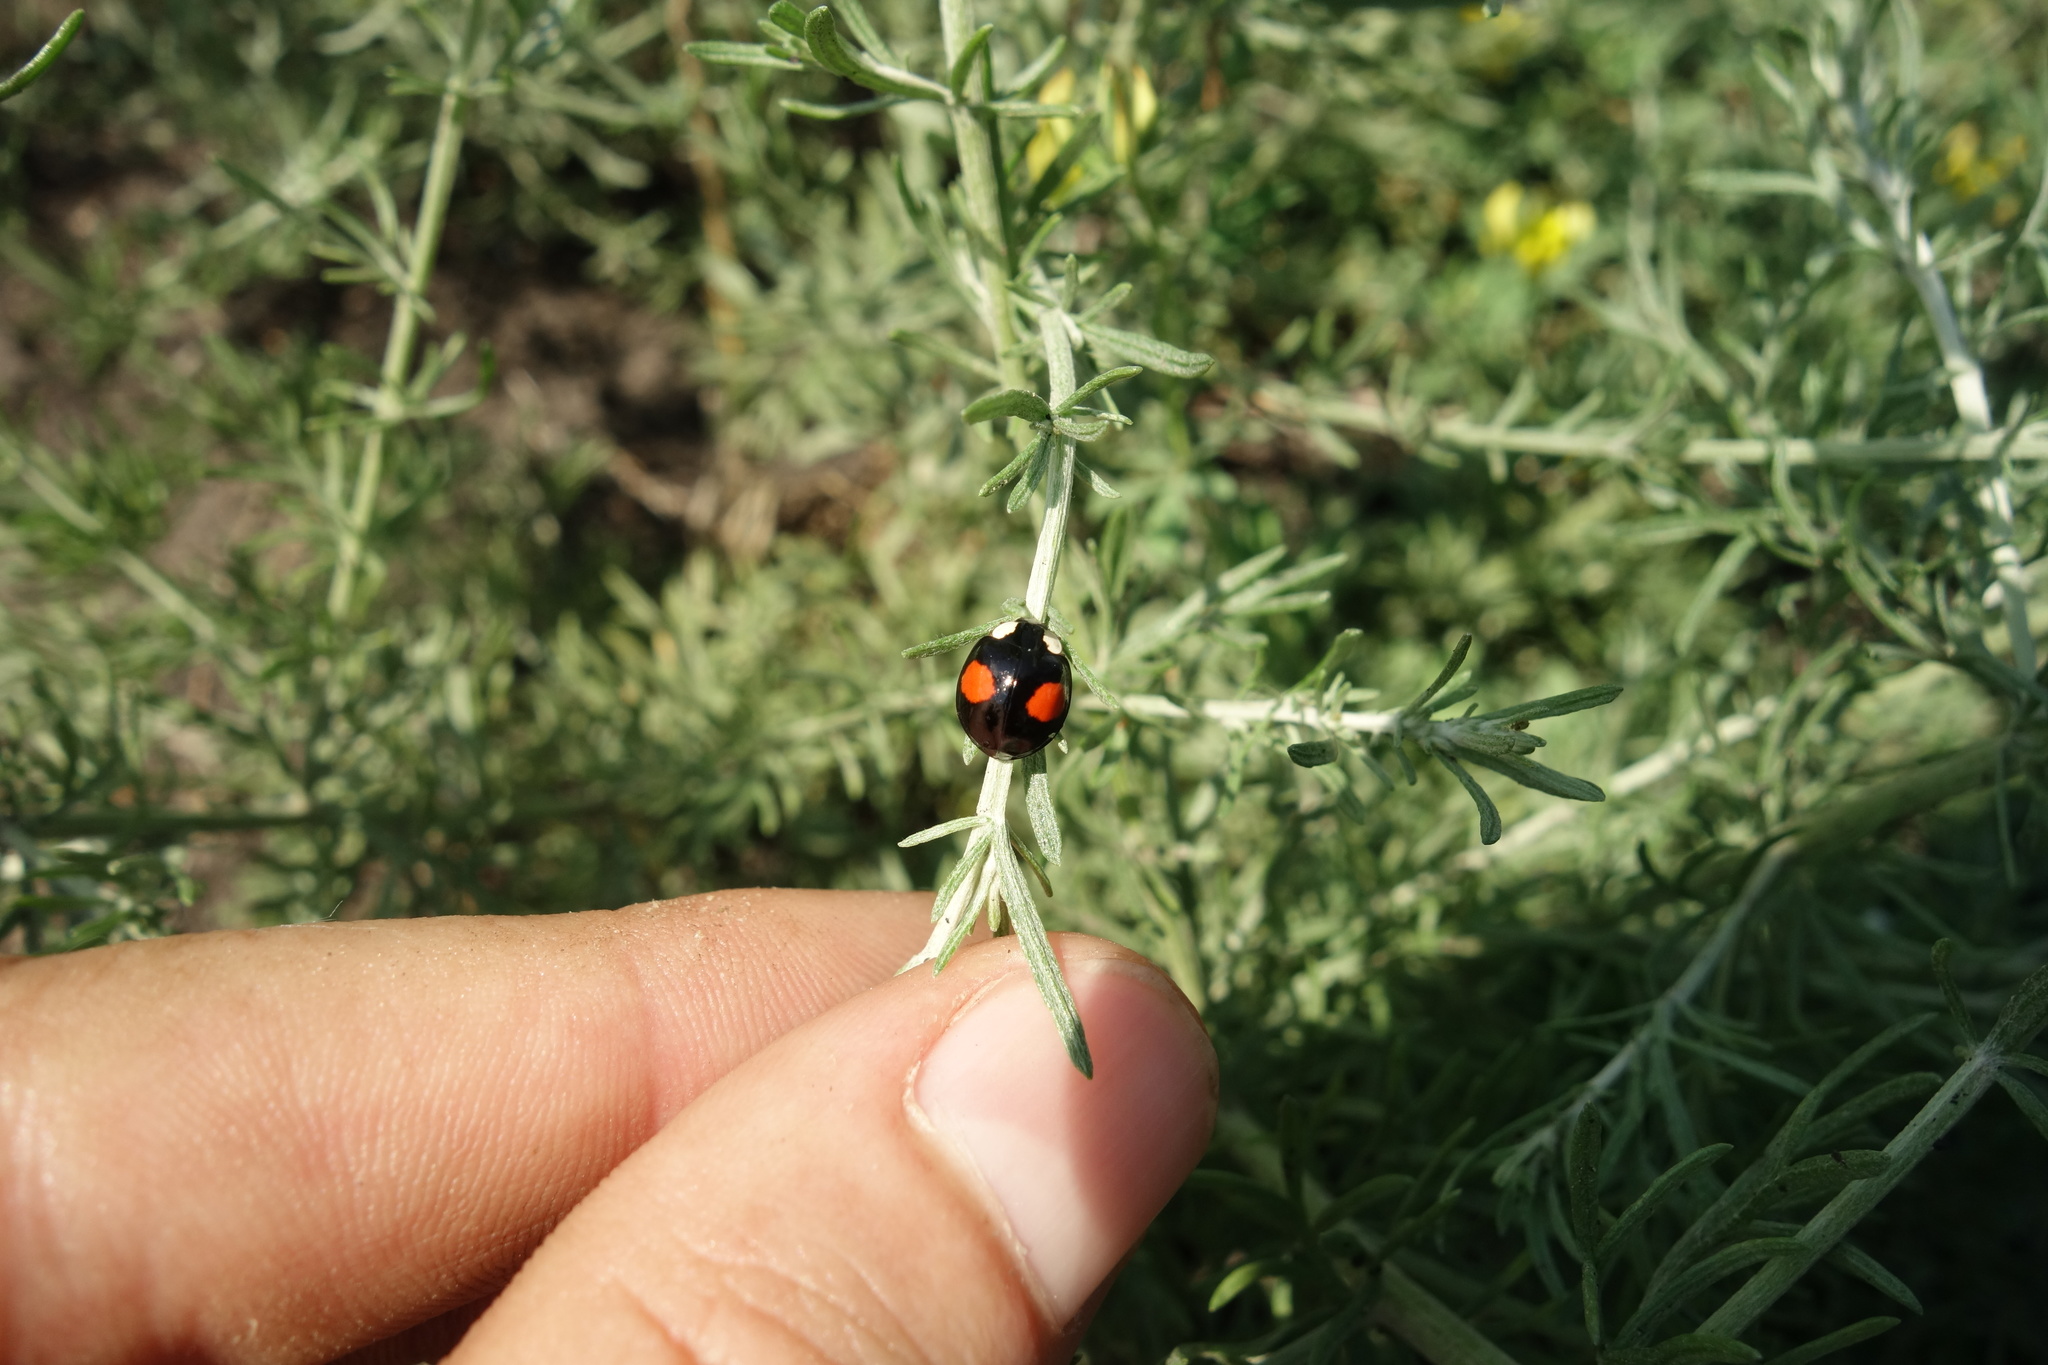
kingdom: Animalia
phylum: Arthropoda
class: Insecta
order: Coleoptera
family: Coccinellidae
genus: Harmonia
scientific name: Harmonia axyridis
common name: Harlequin ladybird
